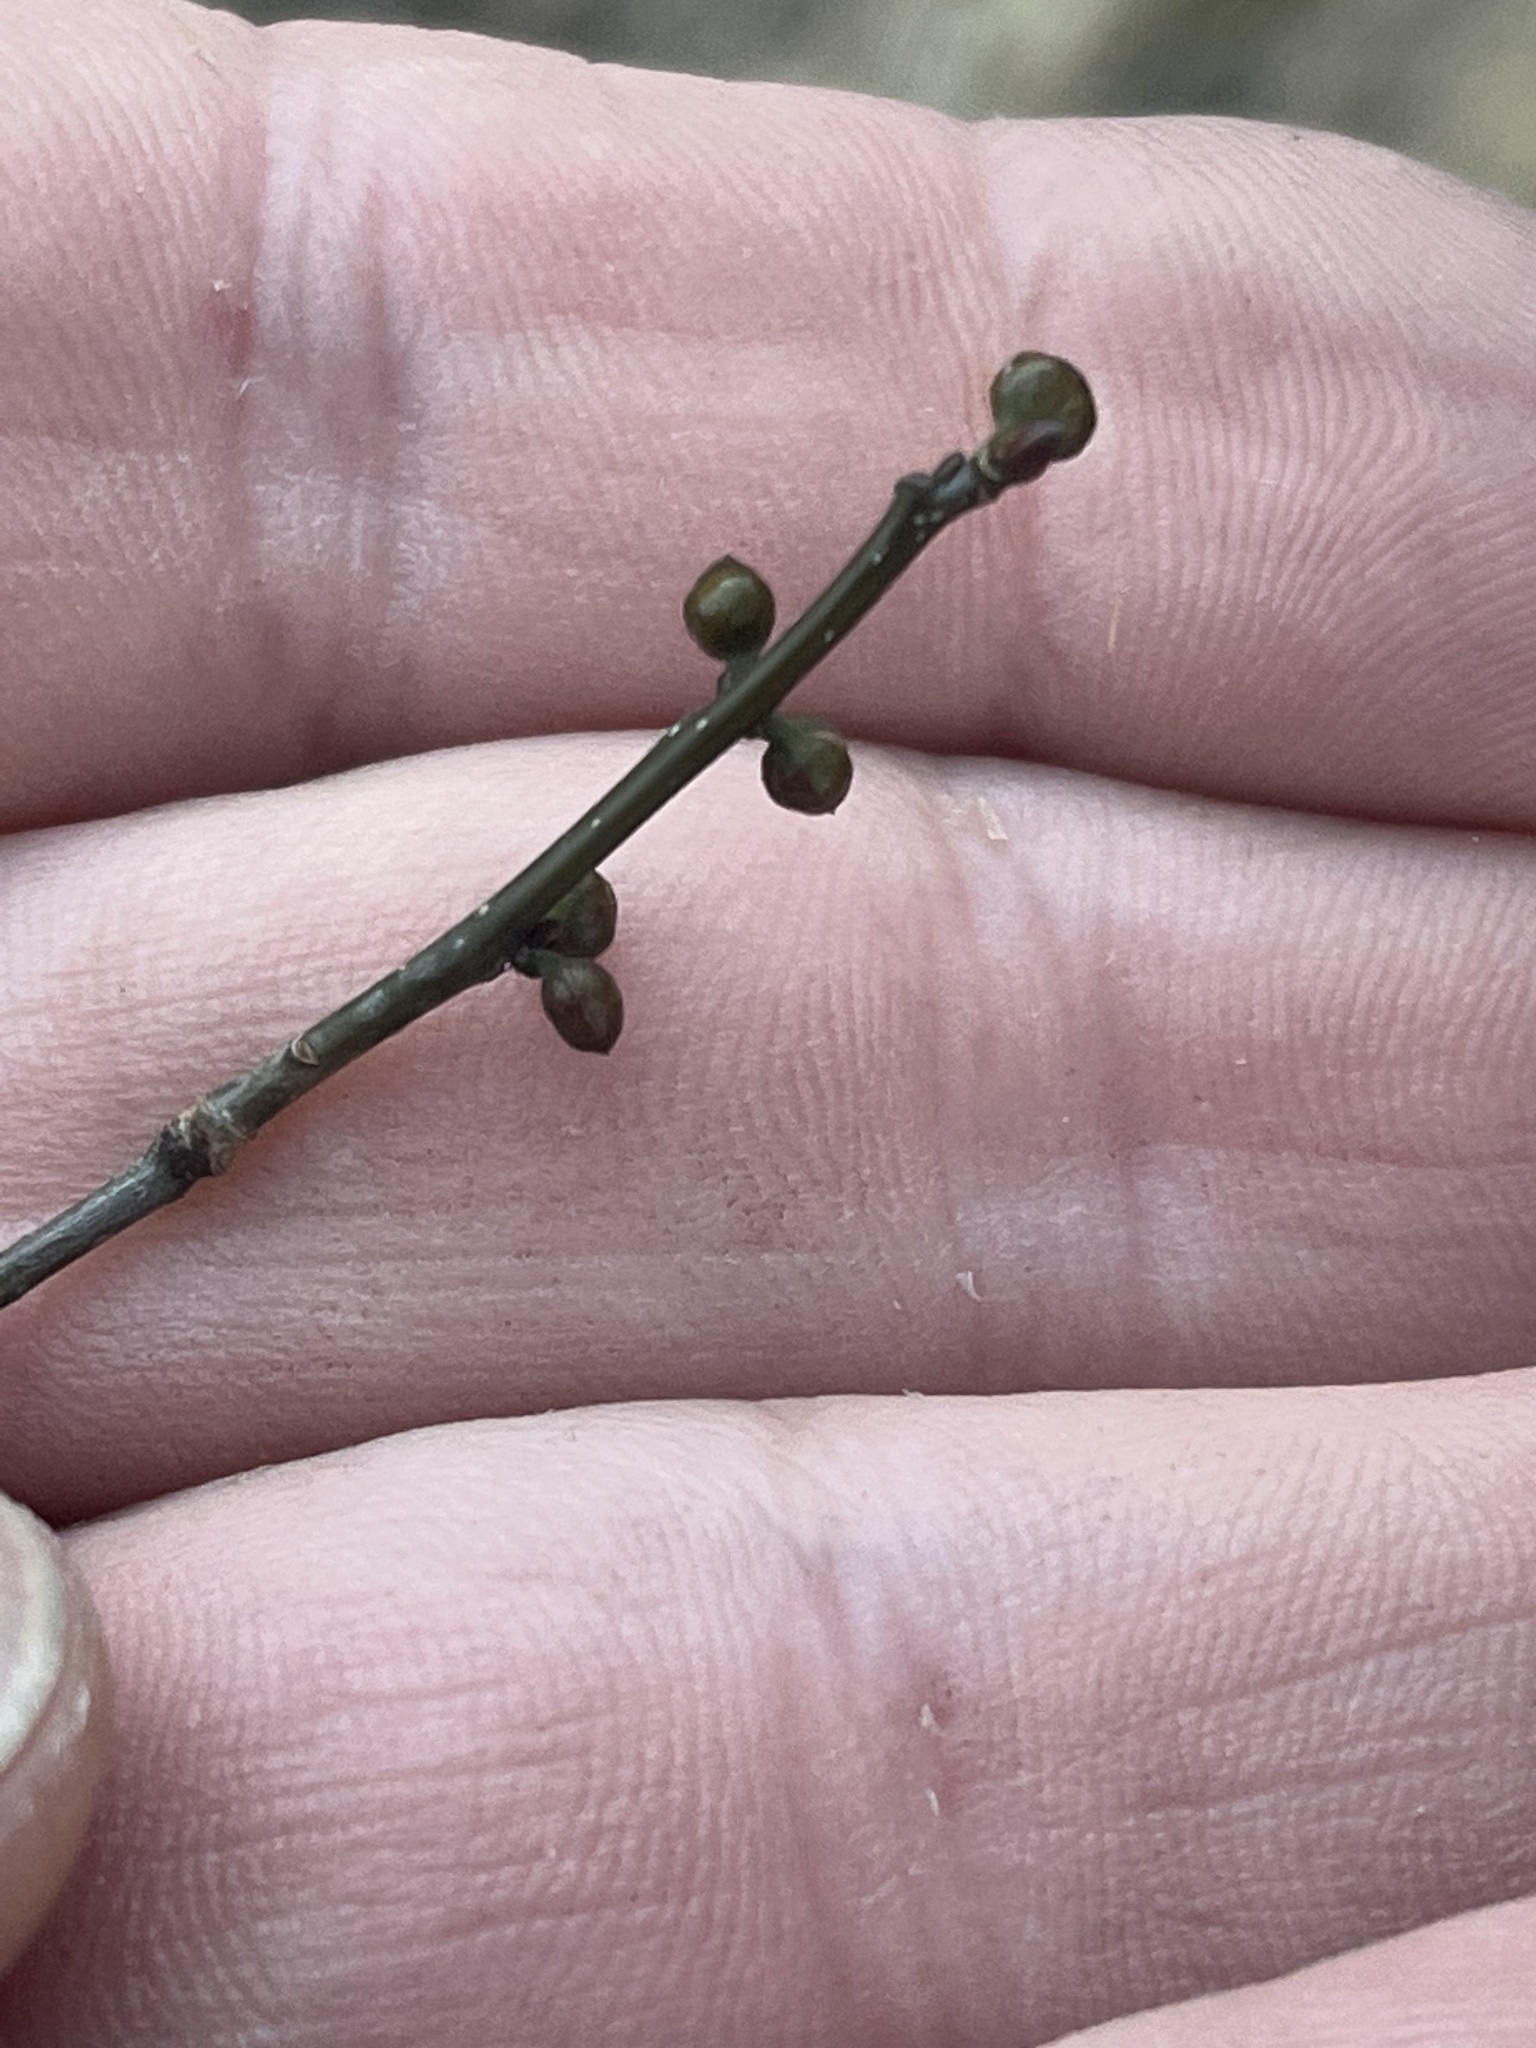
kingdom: Plantae
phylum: Tracheophyta
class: Magnoliopsida
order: Laurales
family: Lauraceae
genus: Lindera
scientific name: Lindera benzoin
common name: Spicebush
